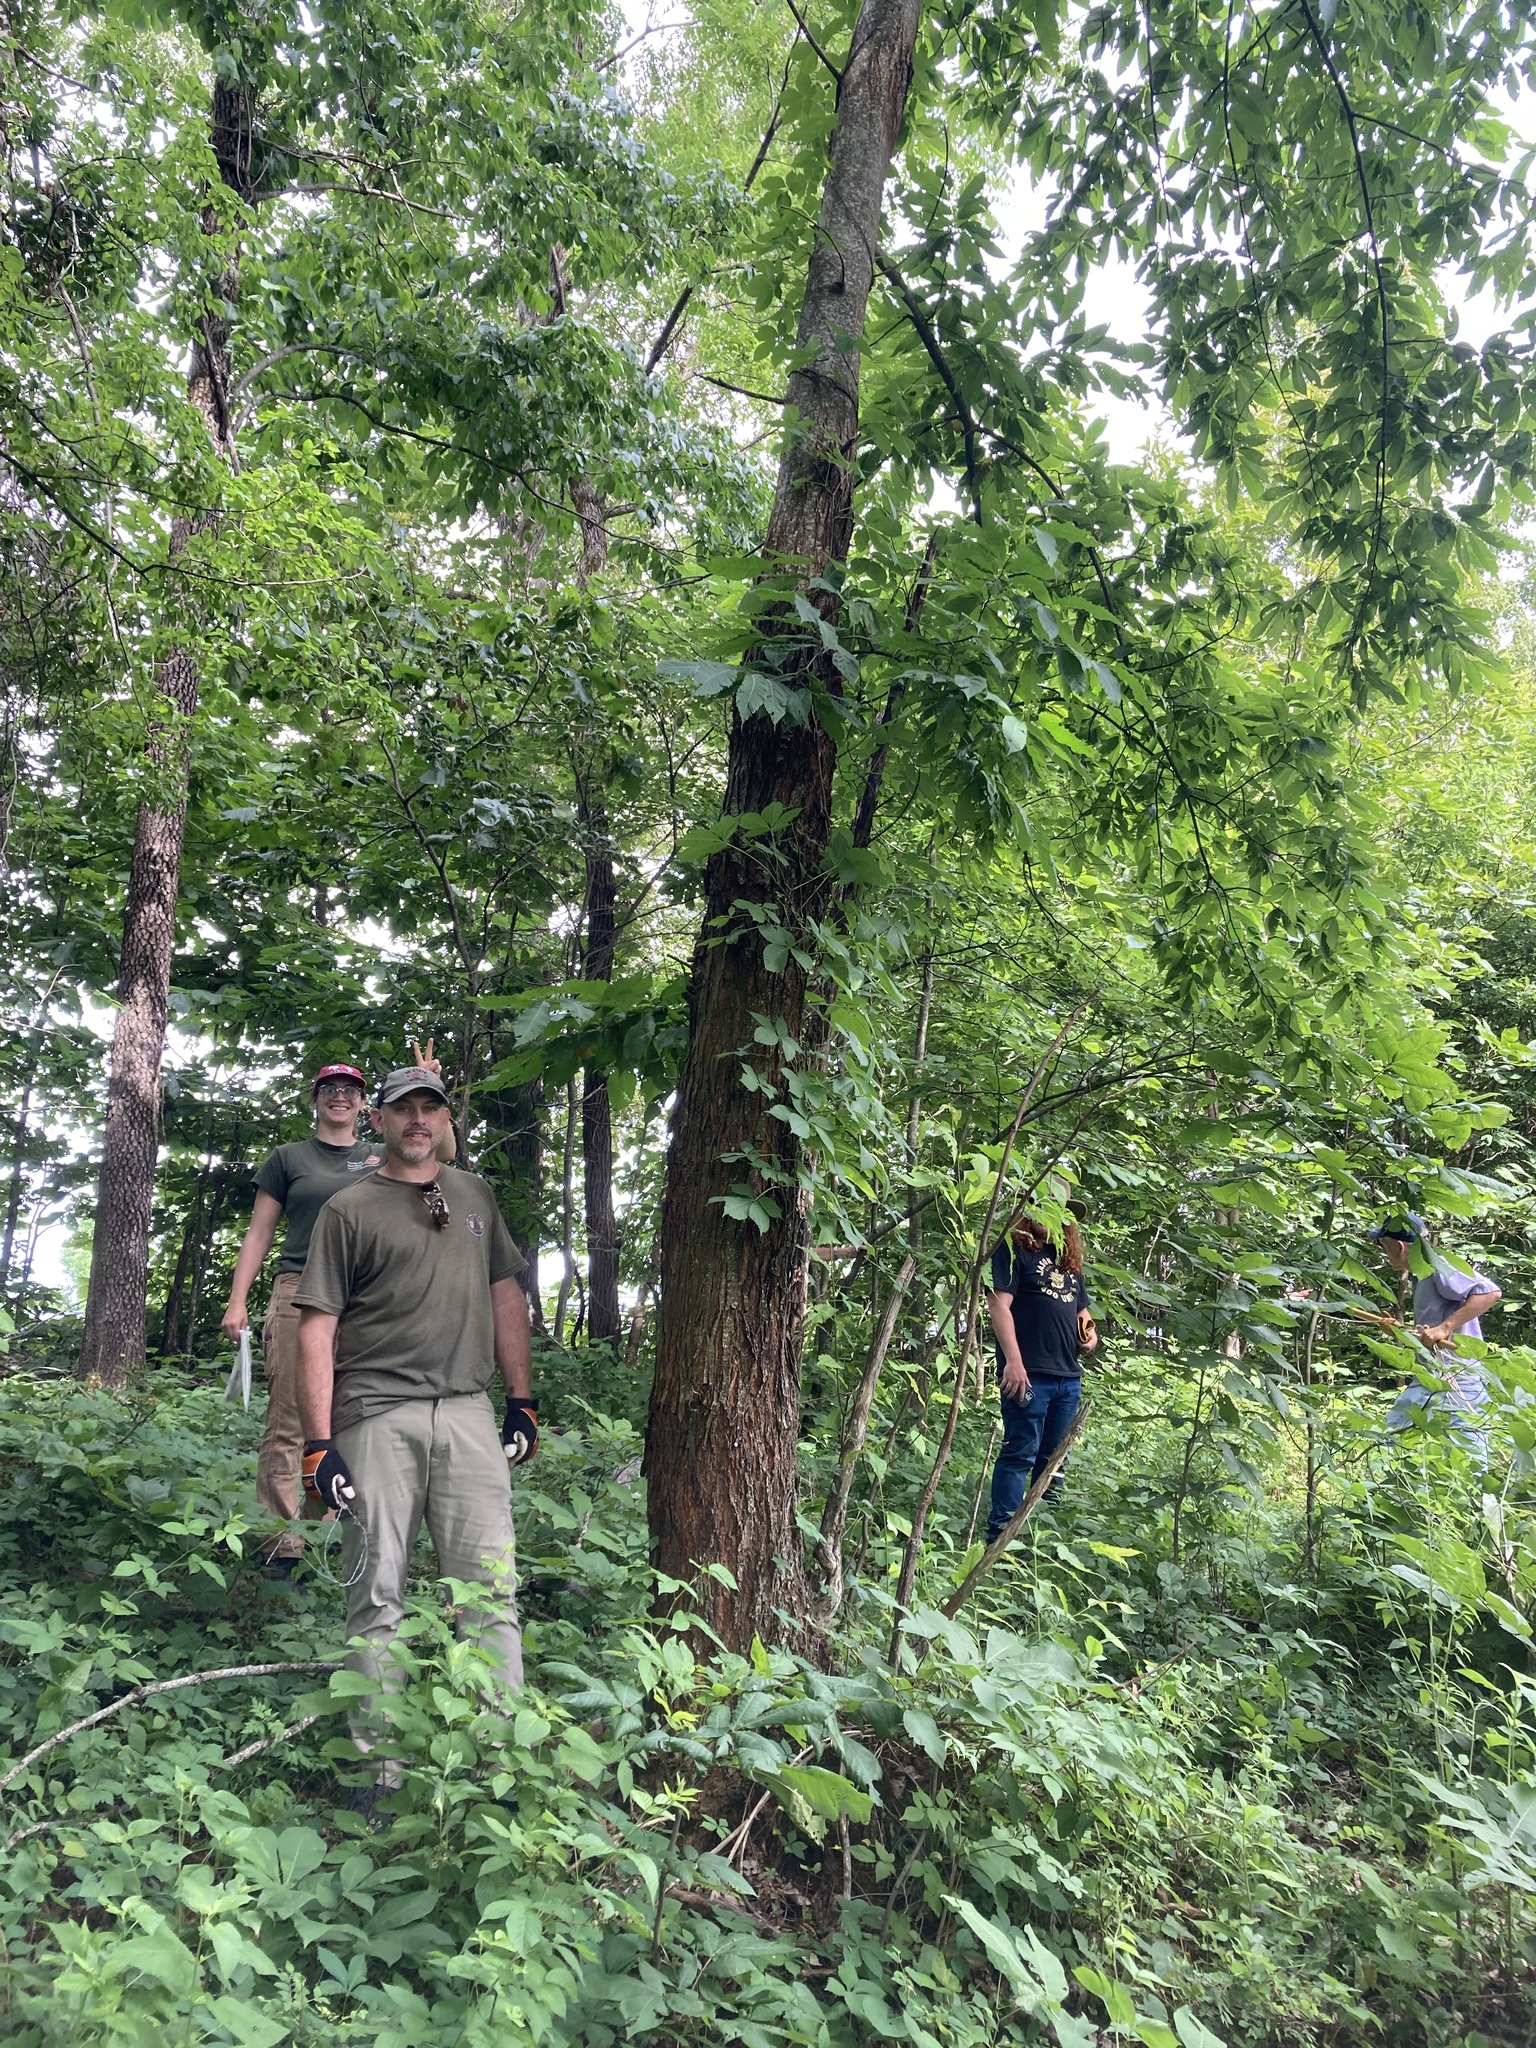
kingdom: Plantae
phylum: Tracheophyta
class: Magnoliopsida
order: Fagales
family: Fagaceae
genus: Castanea
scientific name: Castanea dentata
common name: American chestnut
